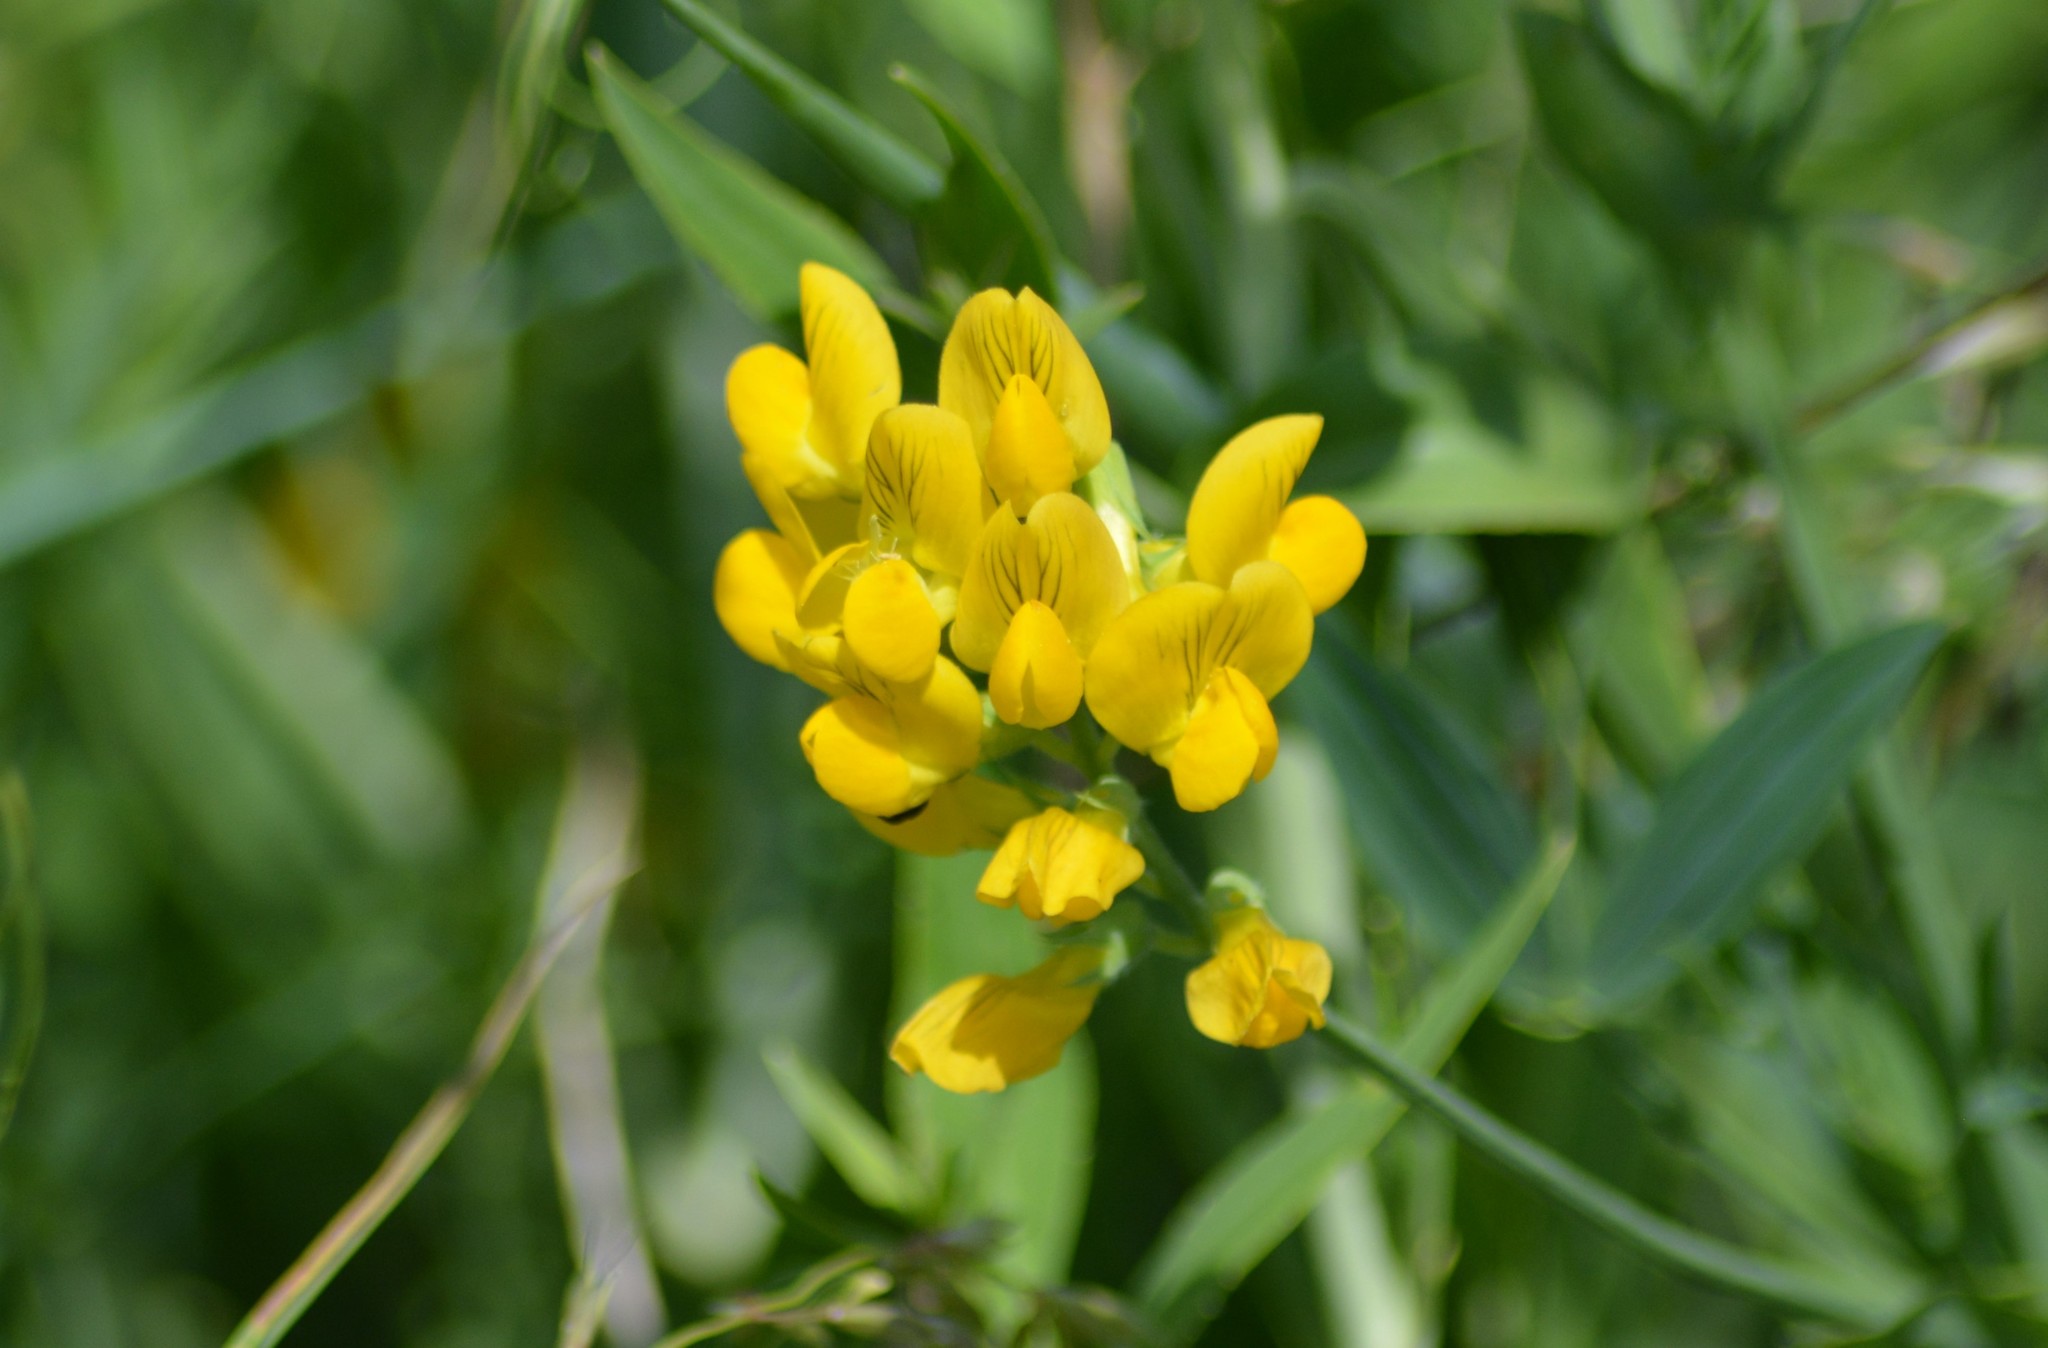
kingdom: Plantae
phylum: Tracheophyta
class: Magnoliopsida
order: Fabales
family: Fabaceae
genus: Lathyrus
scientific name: Lathyrus pratensis
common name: Meadow vetchling
